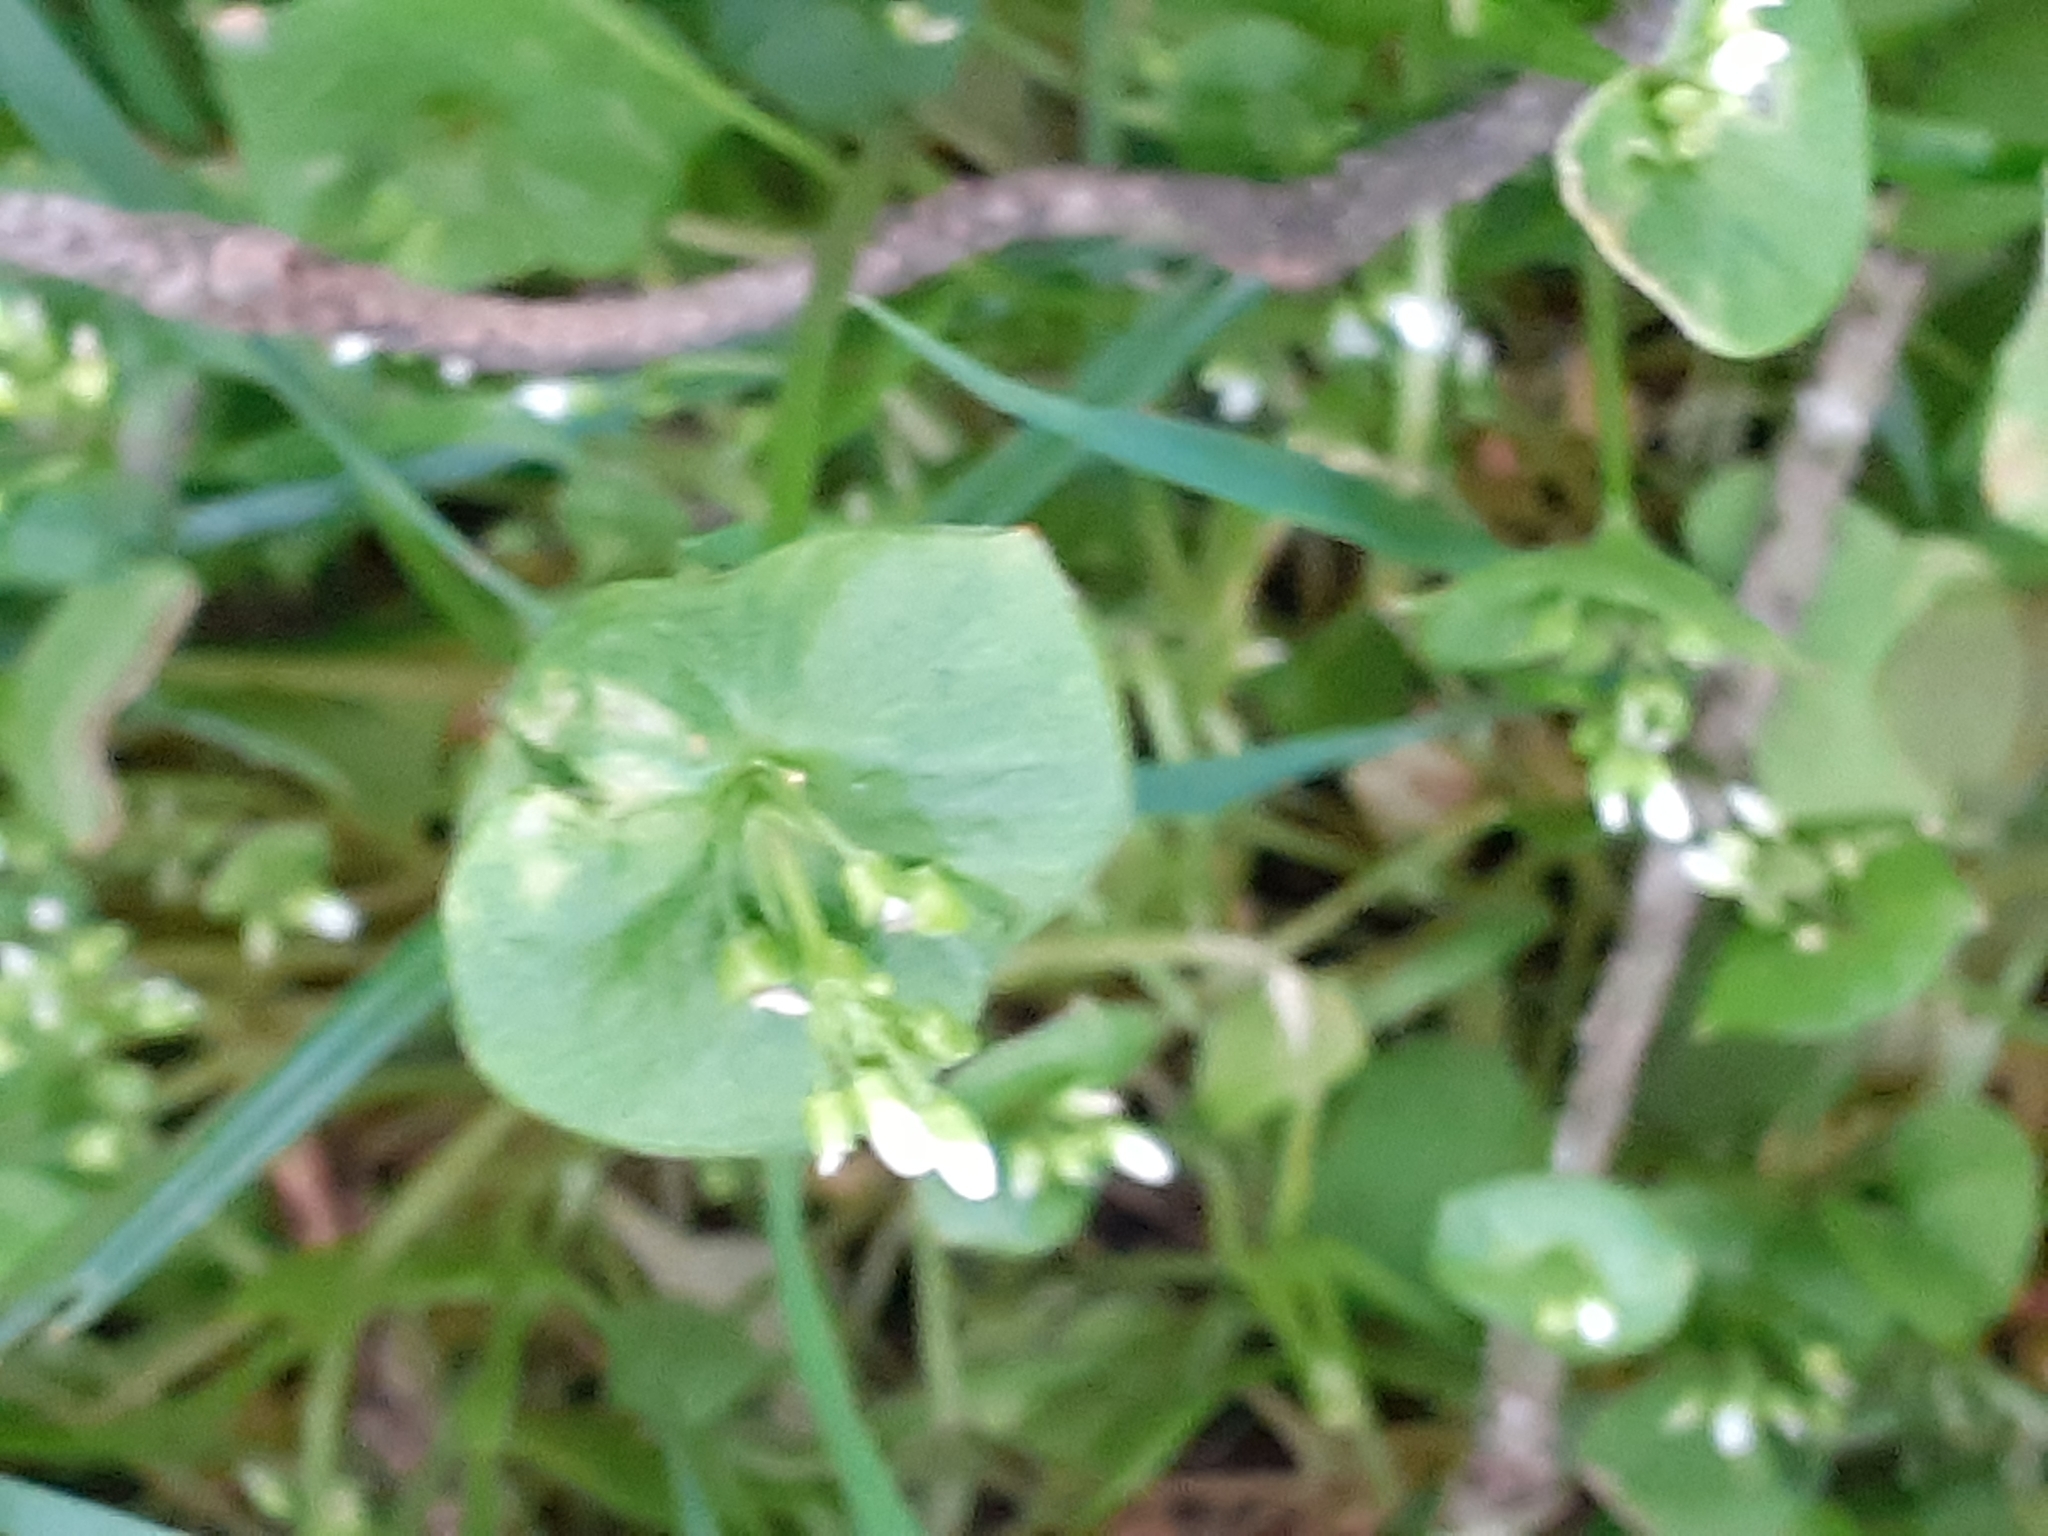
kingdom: Plantae
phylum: Tracheophyta
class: Magnoliopsida
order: Caryophyllales
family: Montiaceae
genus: Claytonia
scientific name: Claytonia perfoliata
